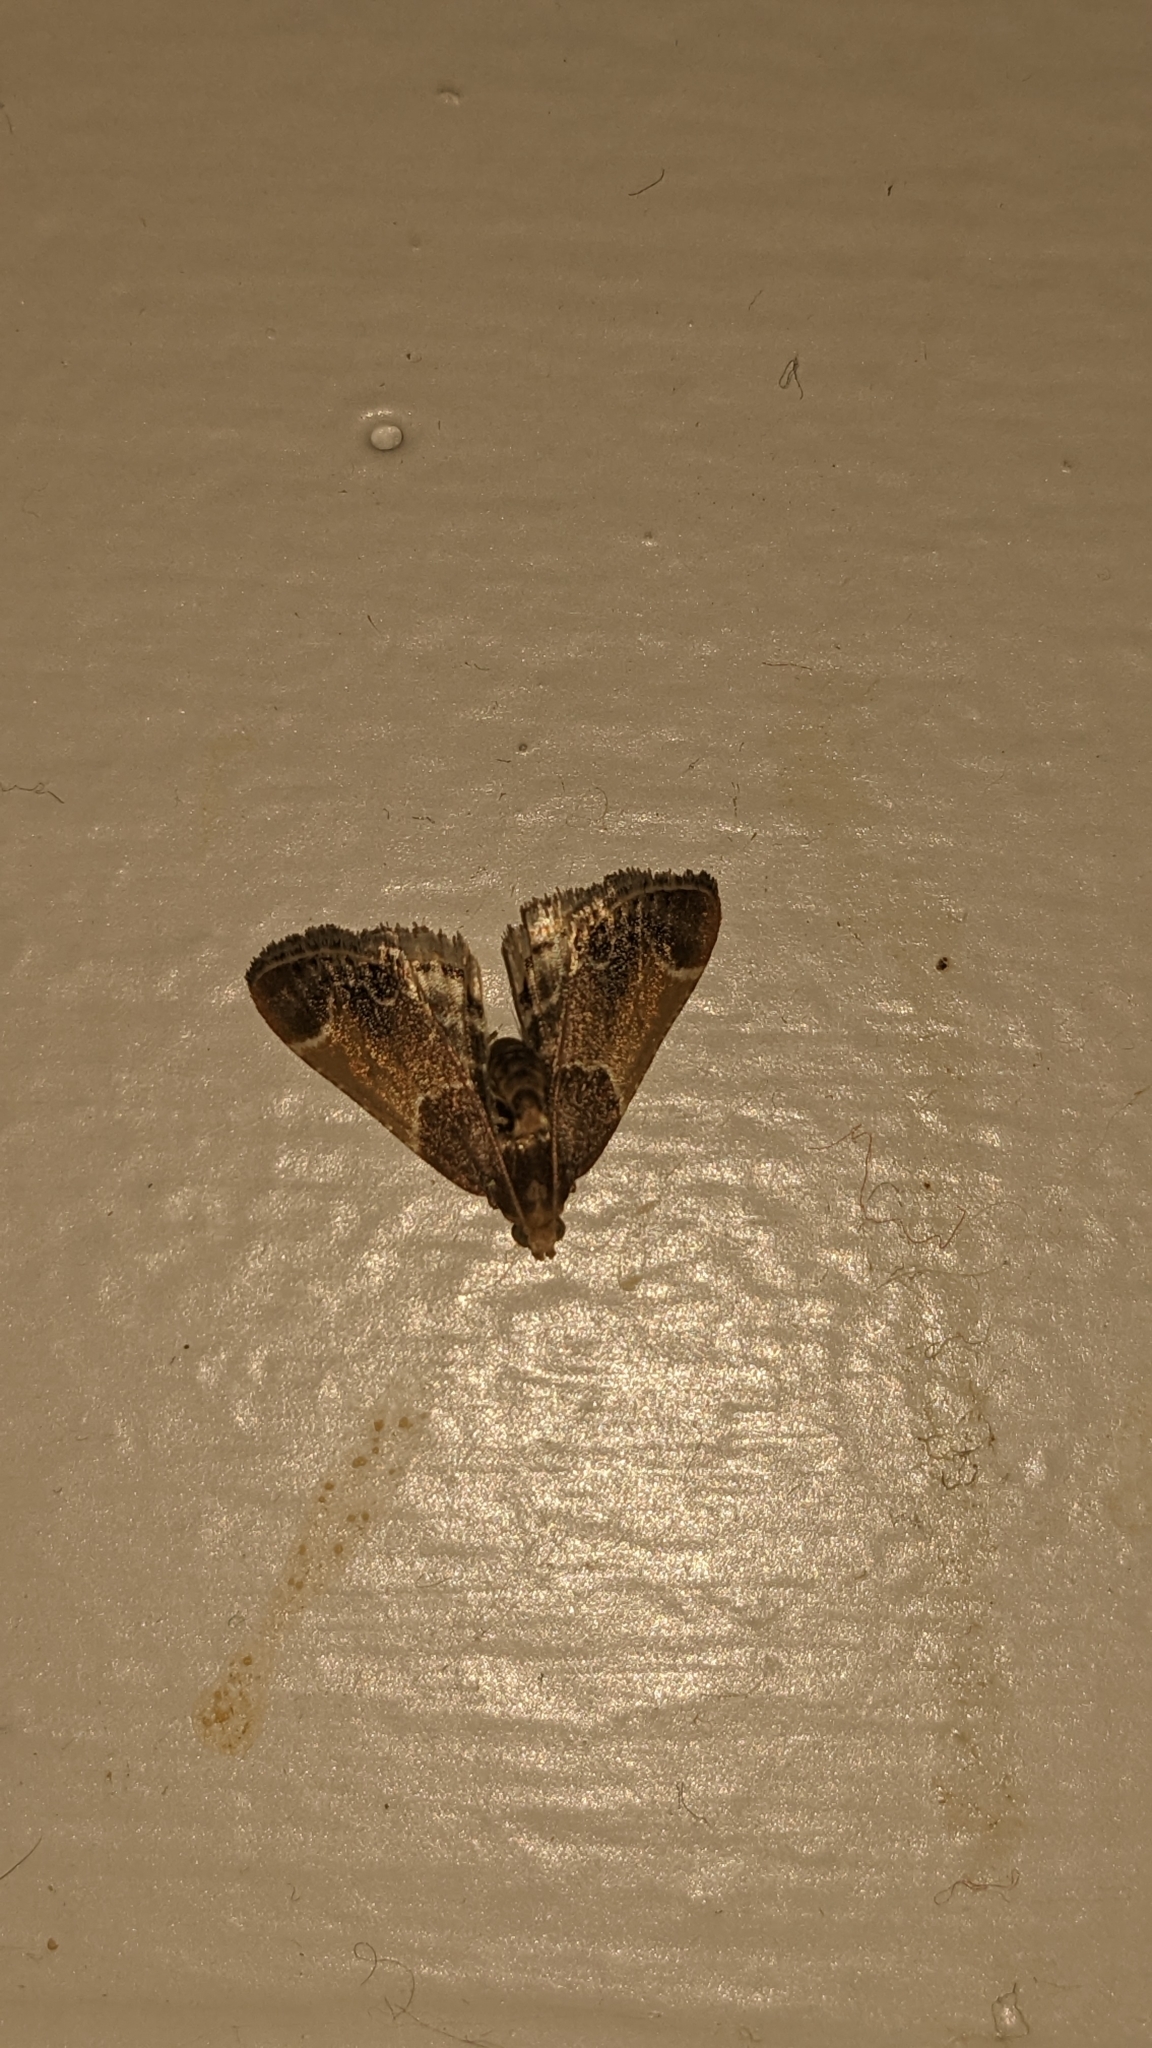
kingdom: Animalia
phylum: Arthropoda
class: Insecta
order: Lepidoptera
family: Pyralidae
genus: Pyralis
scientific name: Pyralis farinalis
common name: Meal moth
